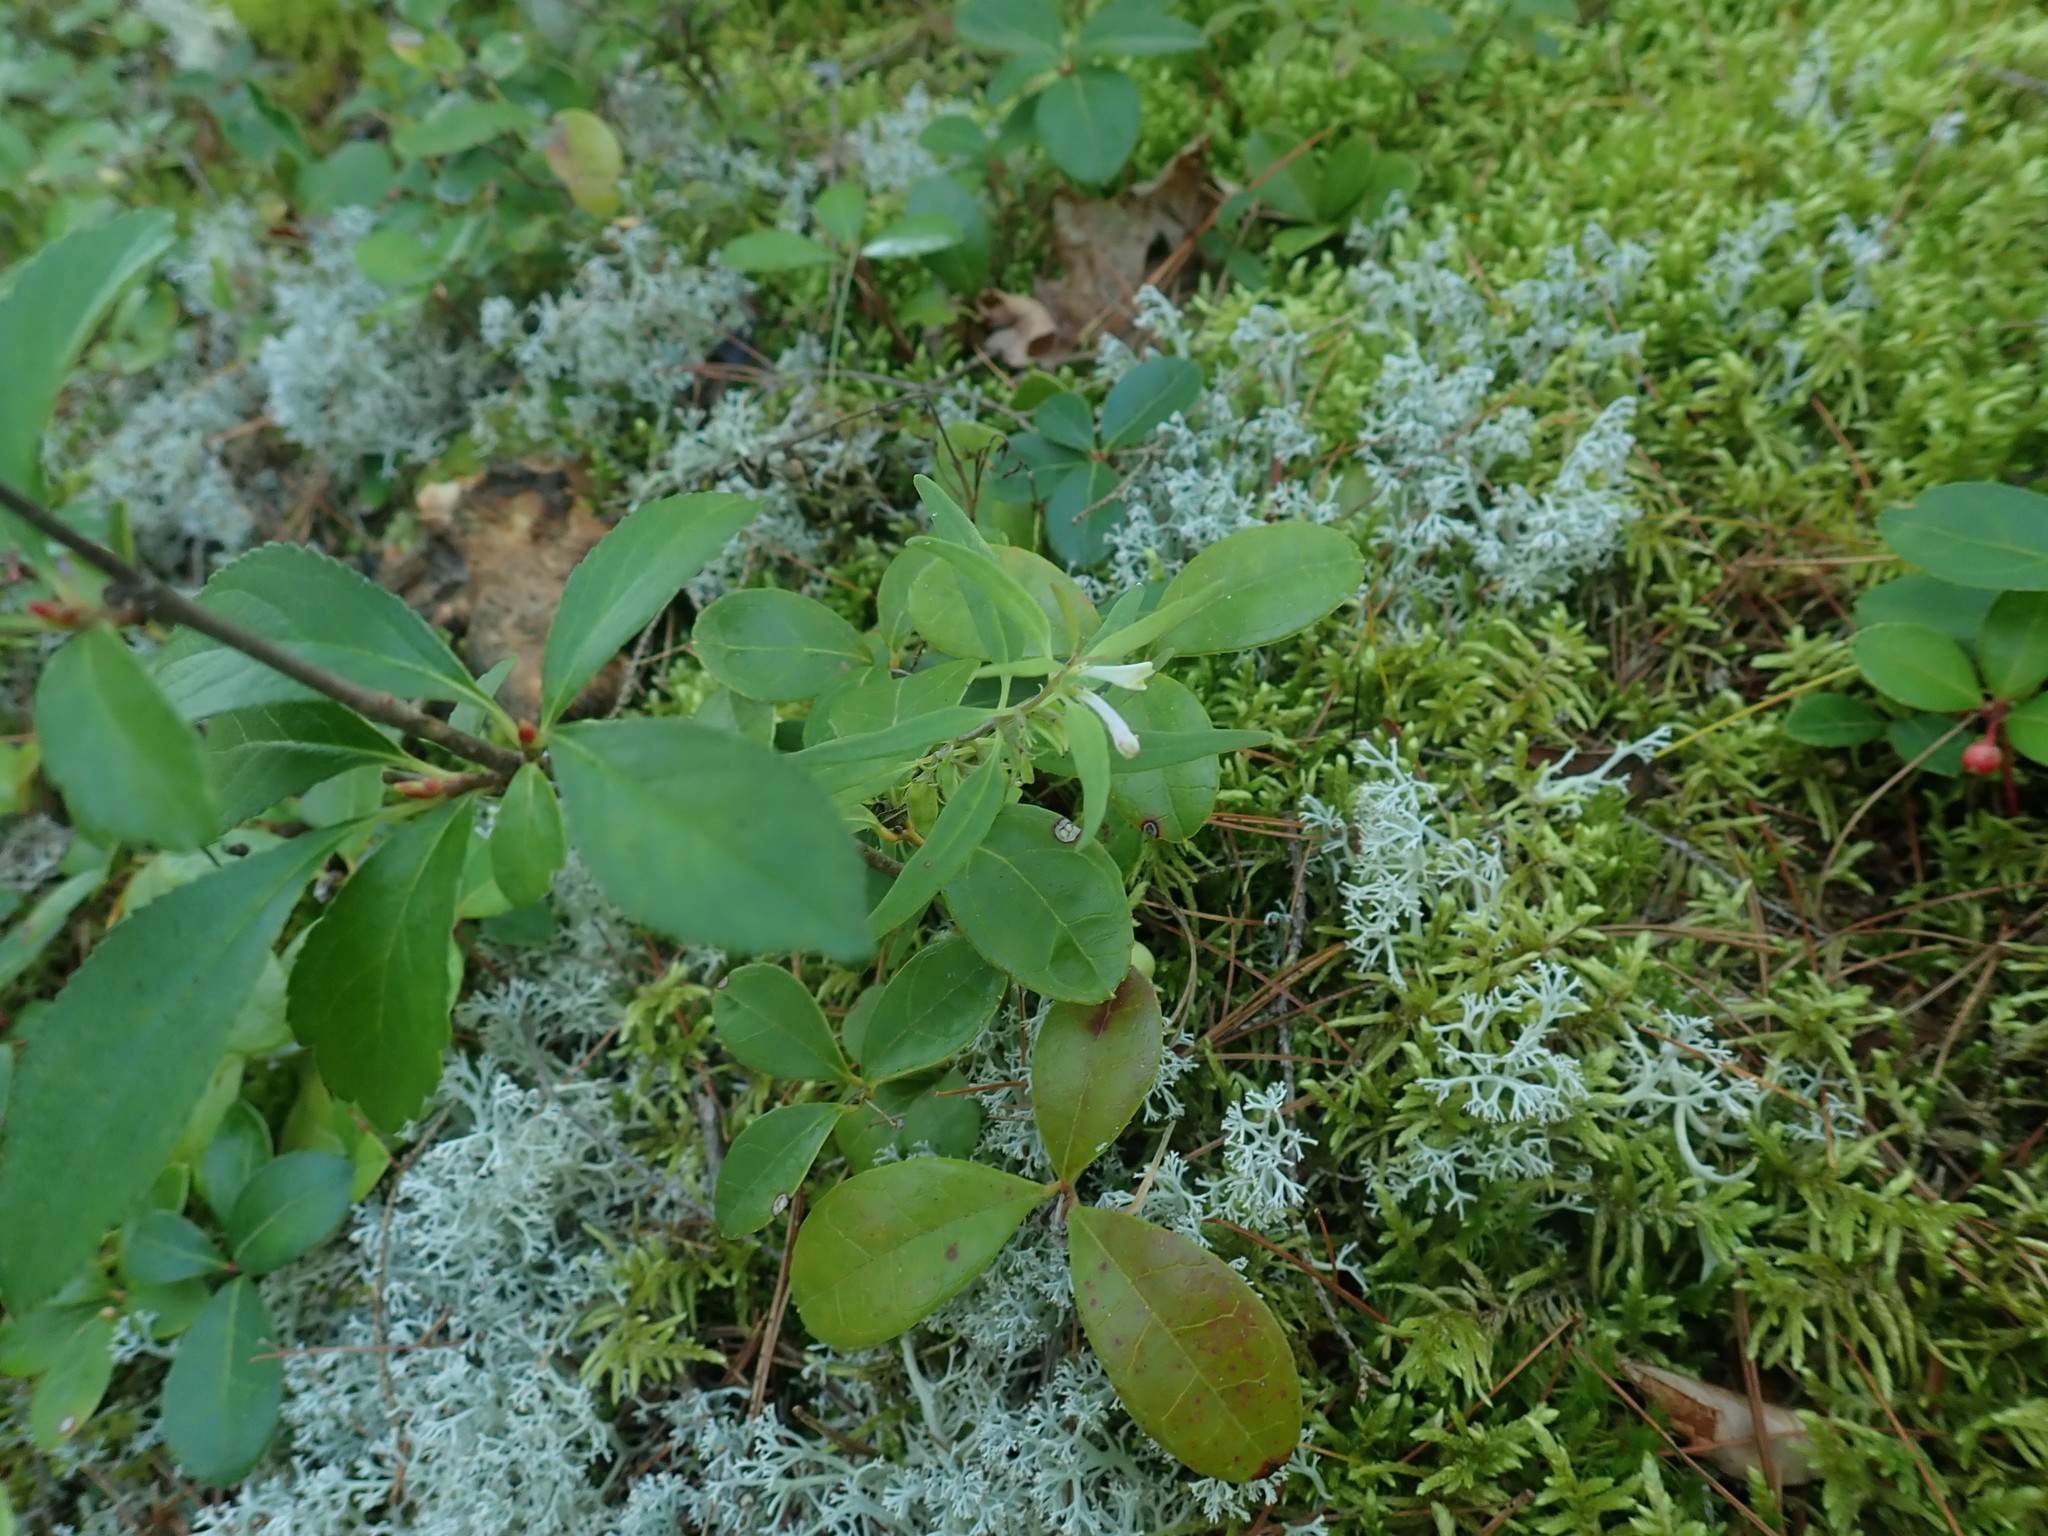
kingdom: Plantae
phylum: Tracheophyta
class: Magnoliopsida
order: Lamiales
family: Orobanchaceae
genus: Melampyrum
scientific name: Melampyrum lineare
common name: American cow-wheat
